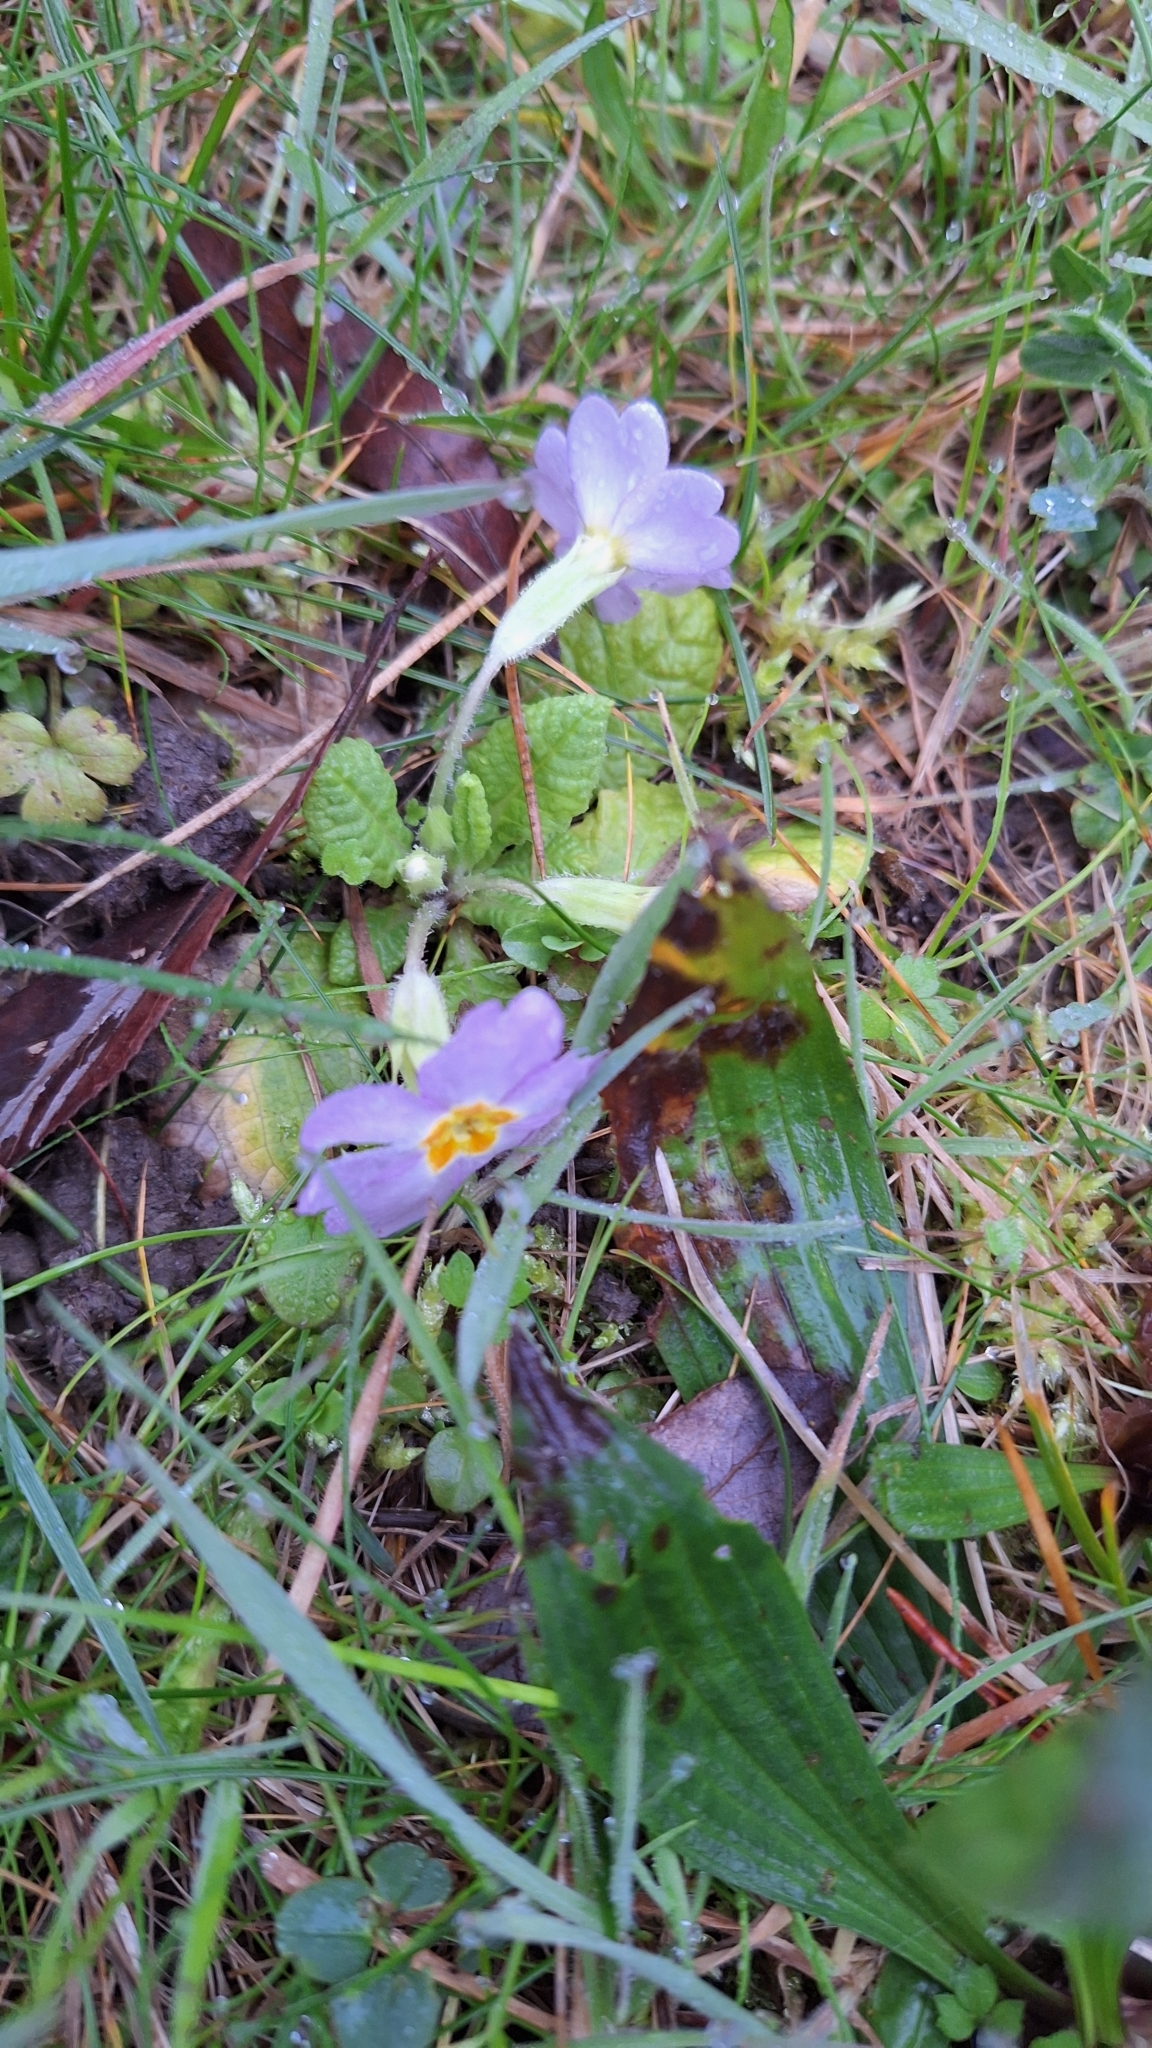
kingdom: Plantae
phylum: Tracheophyta
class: Magnoliopsida
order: Ericales
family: Primulaceae
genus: Primula
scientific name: Primula vulgaris
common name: Primrose
